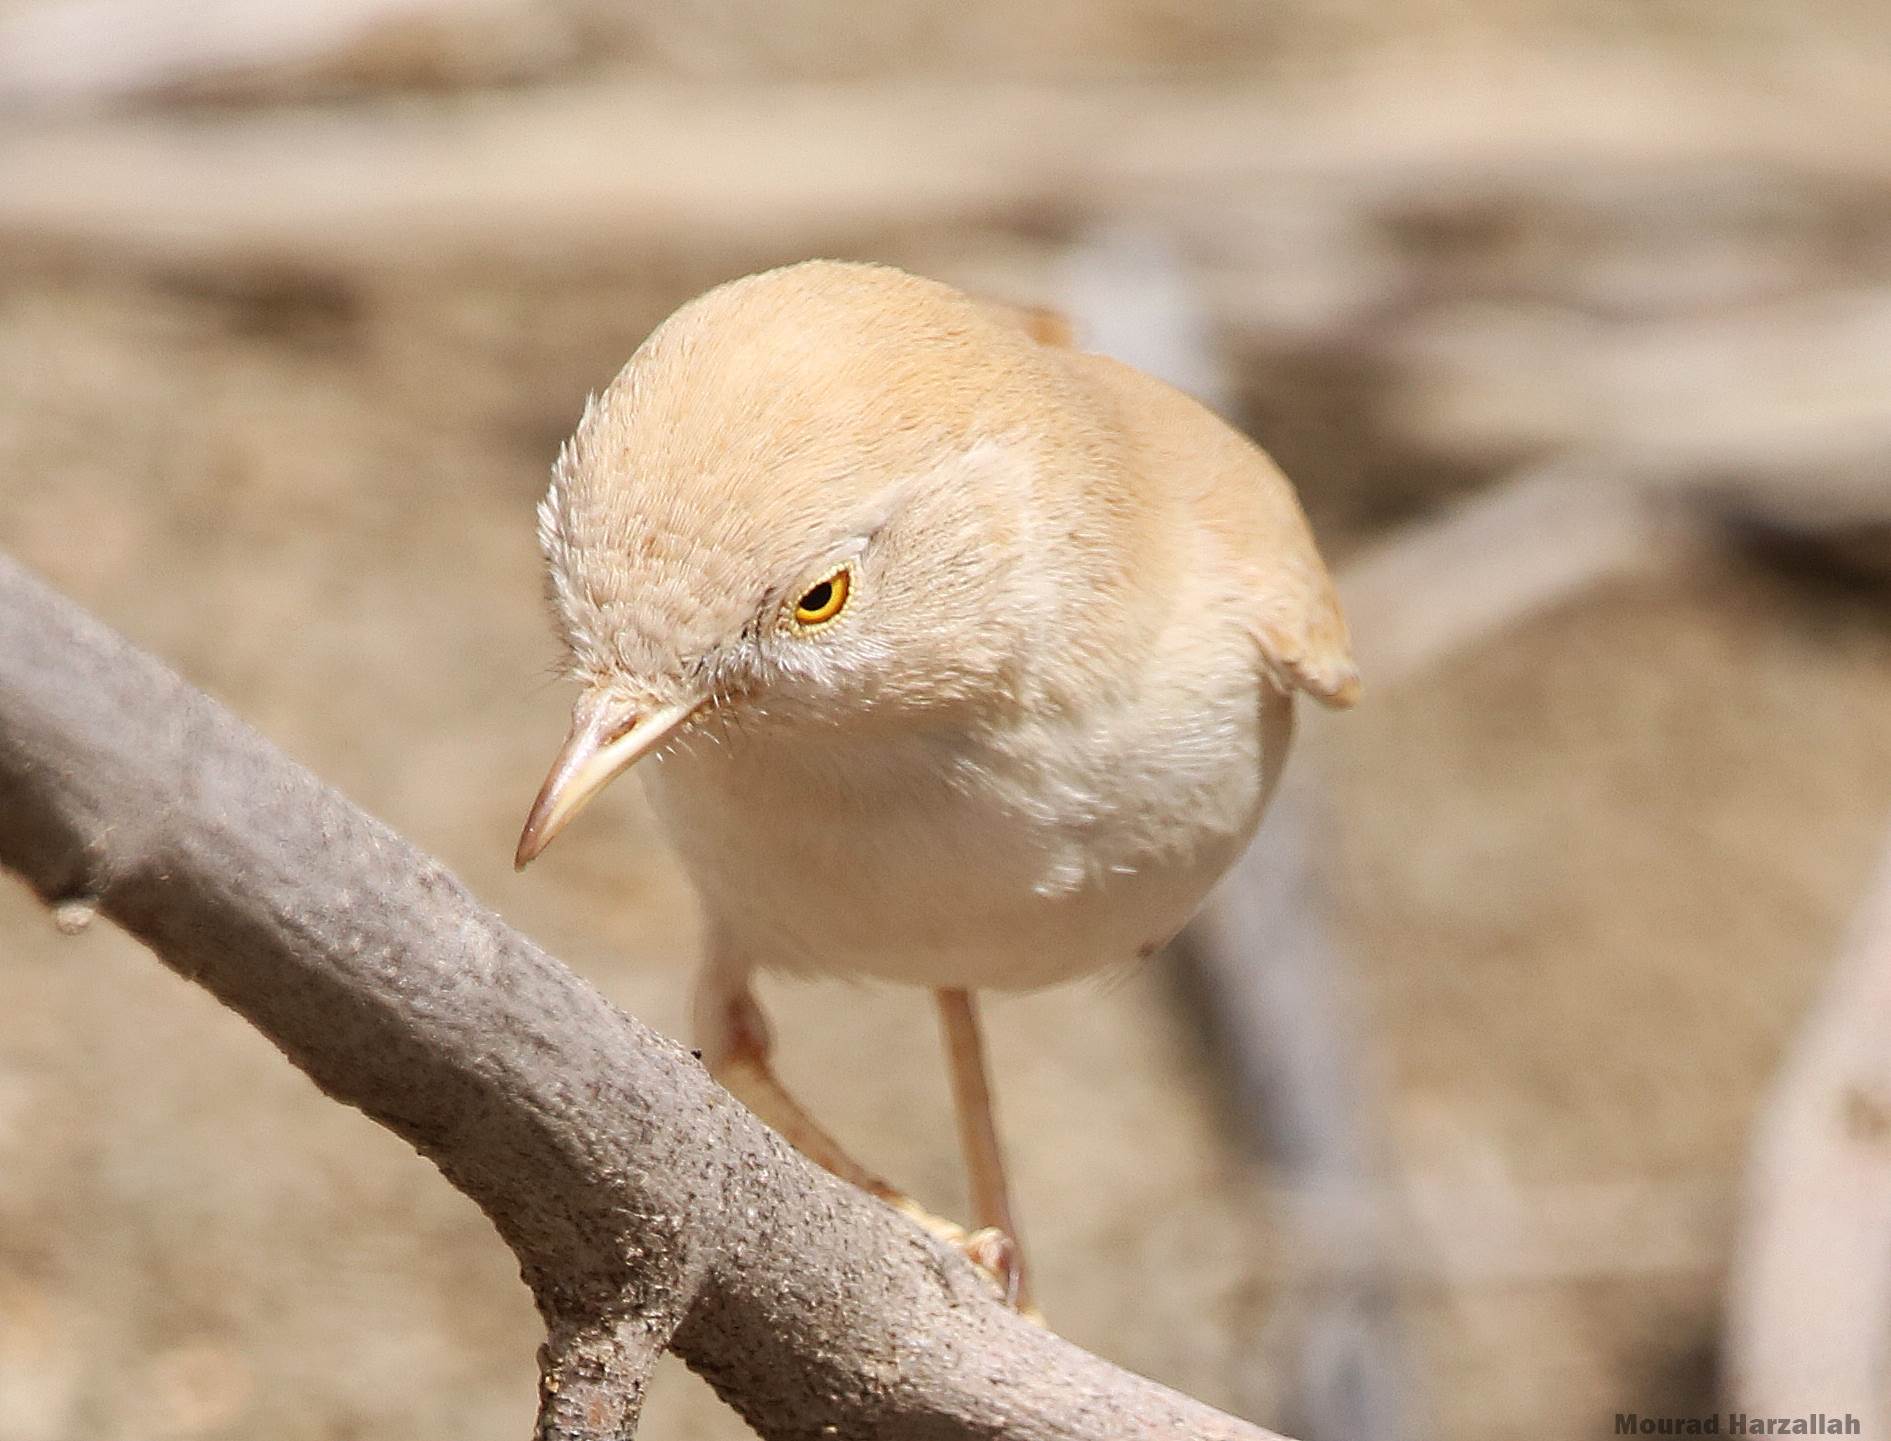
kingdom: Animalia
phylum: Chordata
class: Aves
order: Passeriformes
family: Sylviidae
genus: Sylvia
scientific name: Sylvia deserti
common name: African desert warbler
